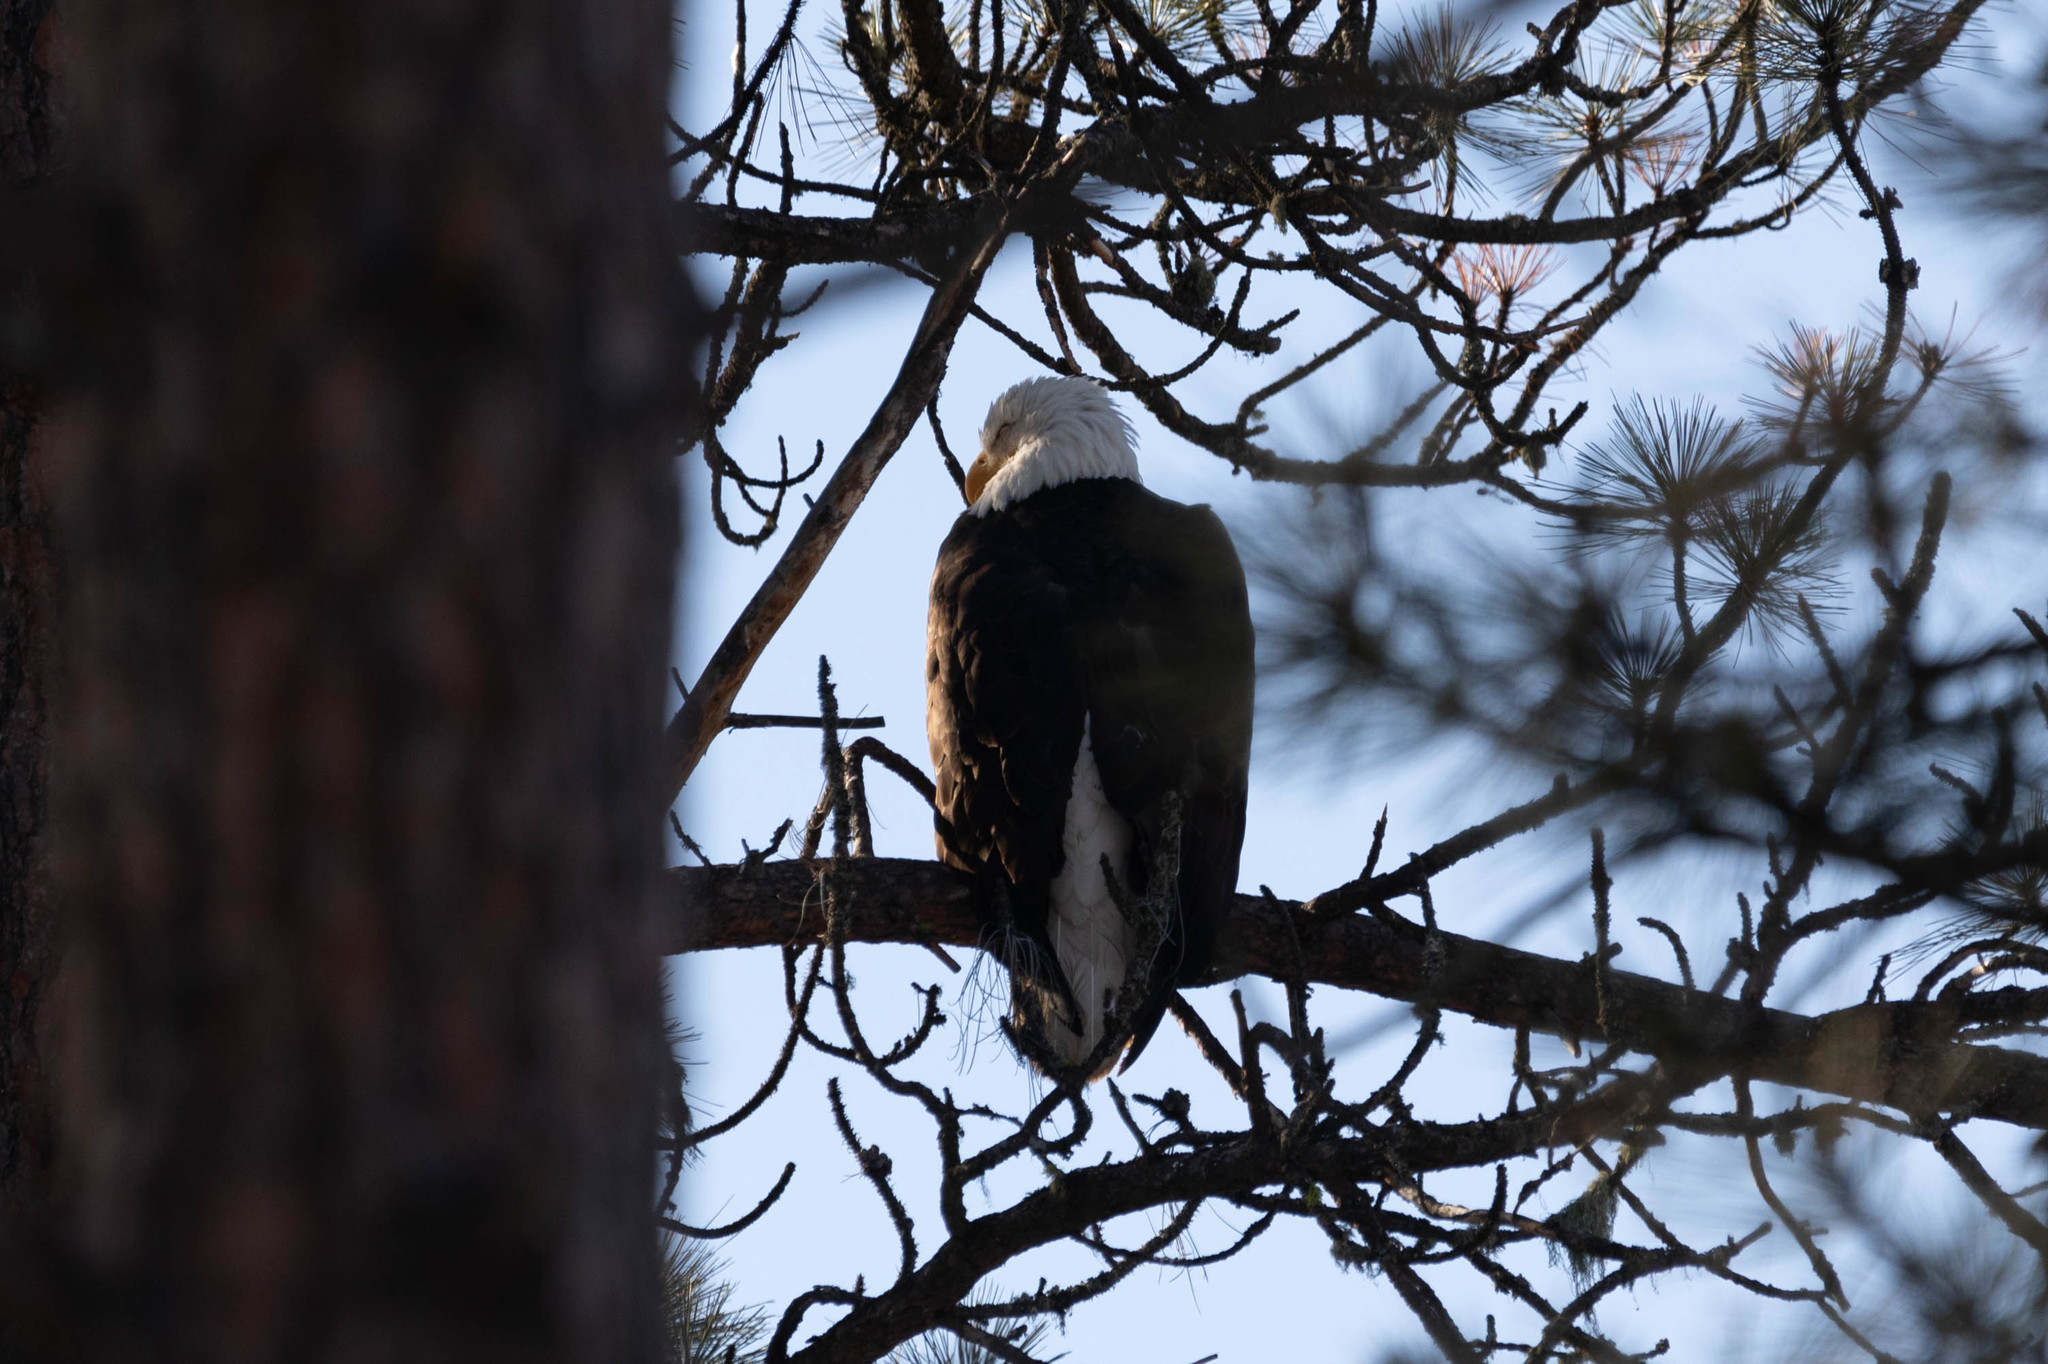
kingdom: Animalia
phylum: Chordata
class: Aves
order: Accipitriformes
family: Accipitridae
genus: Haliaeetus
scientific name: Haliaeetus leucocephalus
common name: Bald eagle
